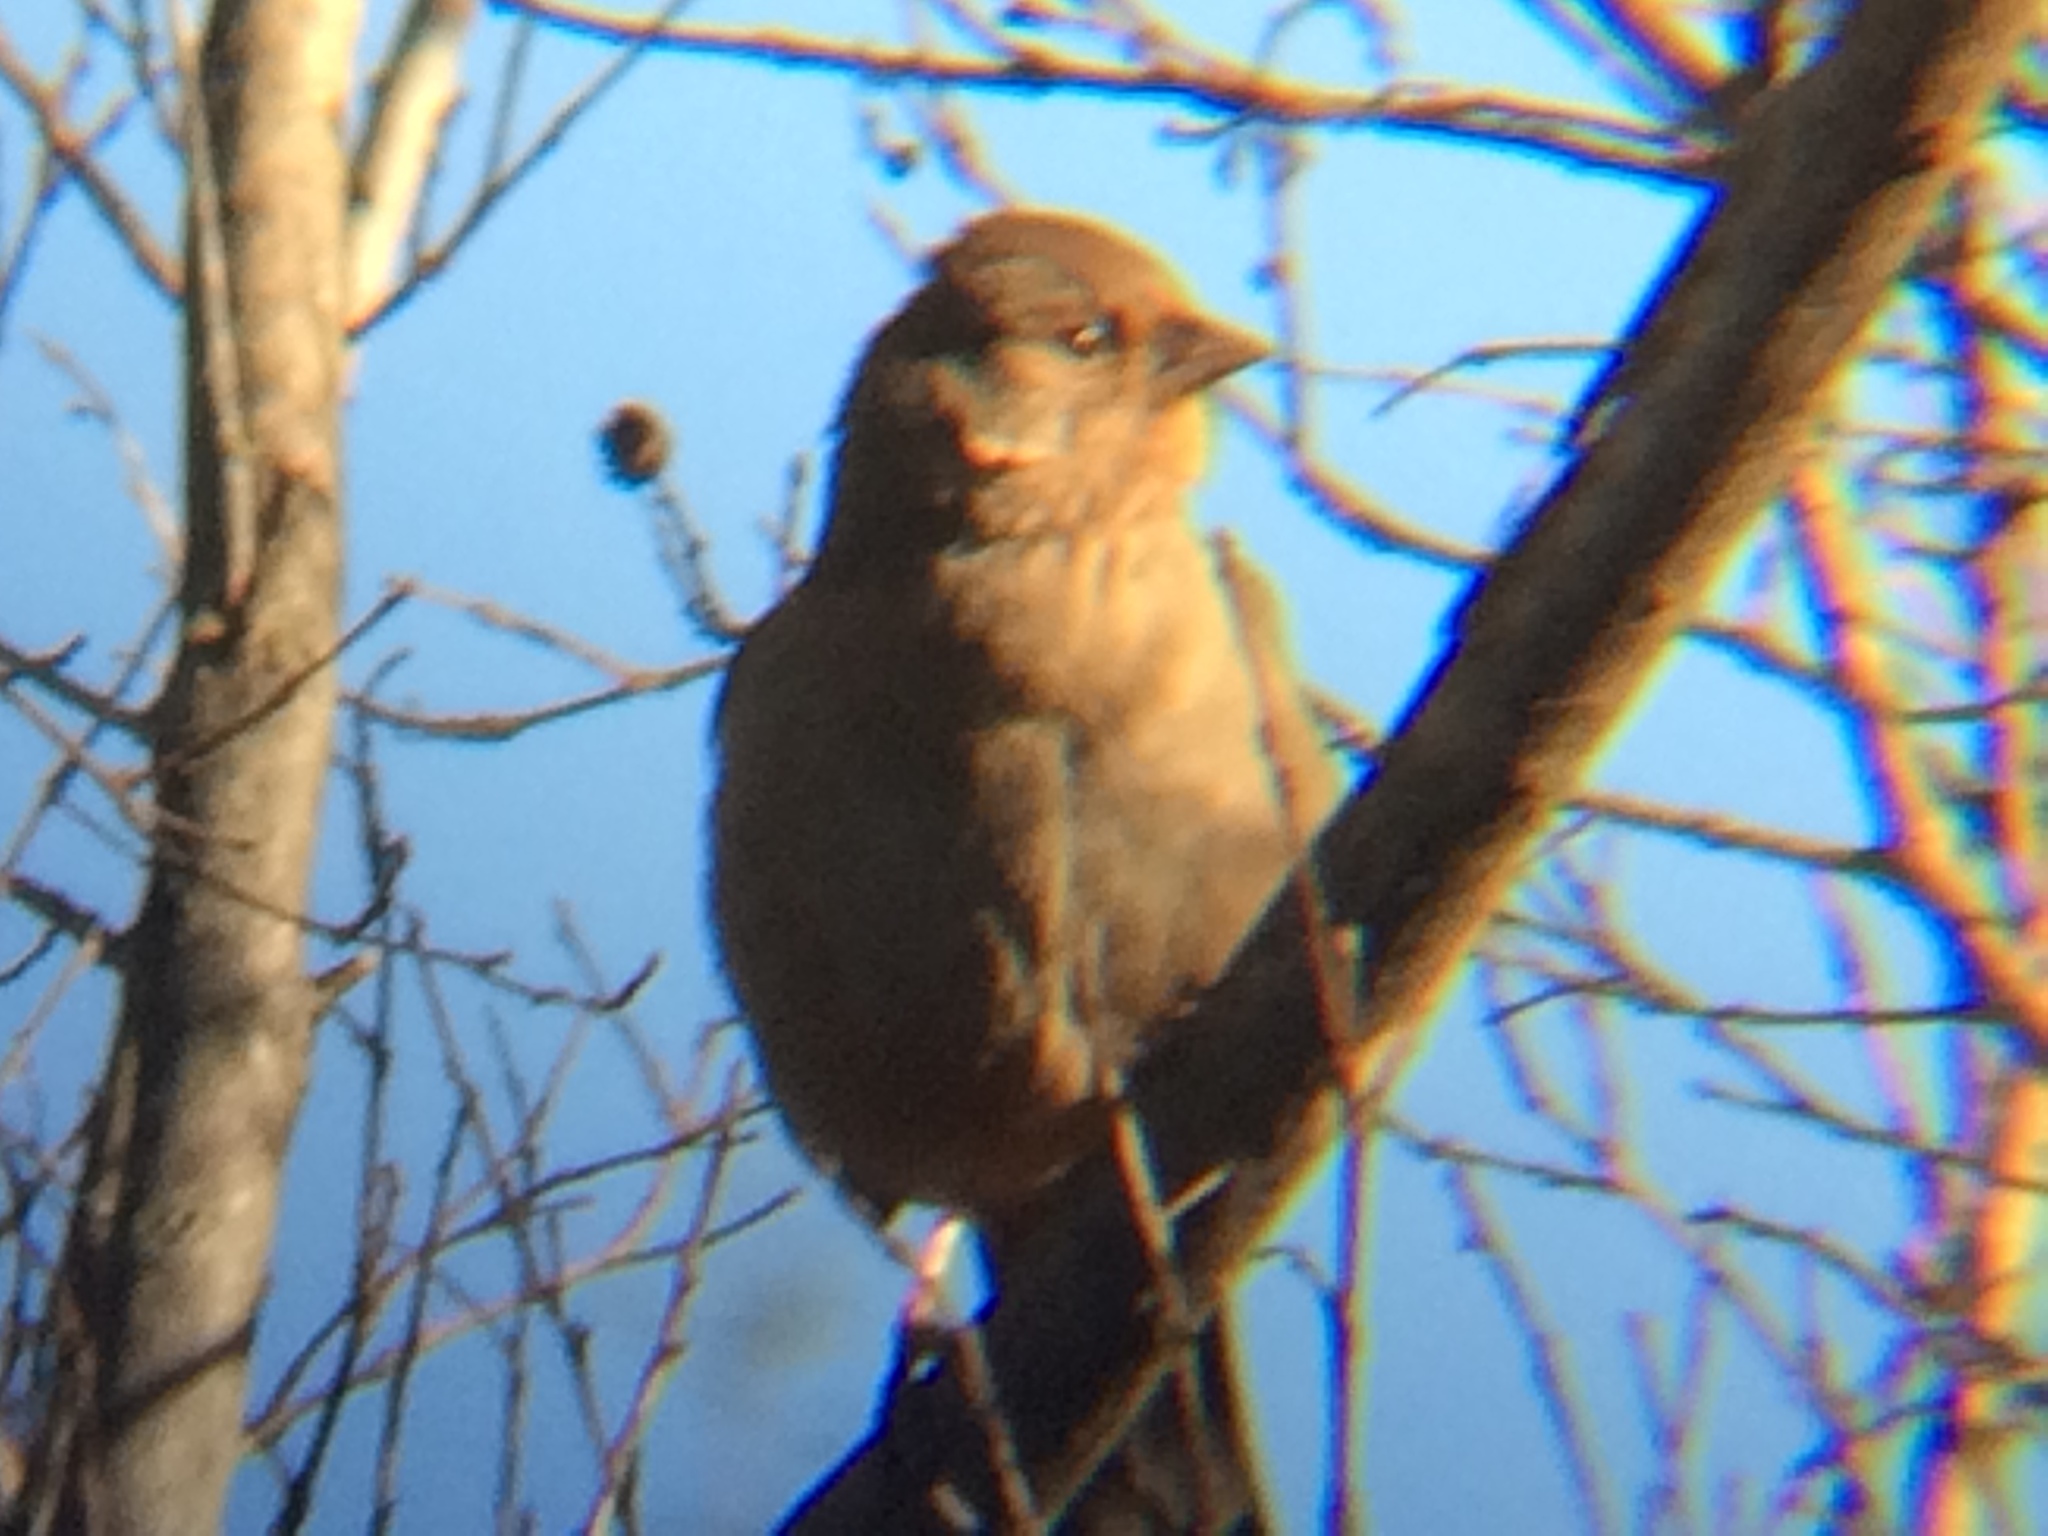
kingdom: Animalia
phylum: Chordata
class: Aves
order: Passeriformes
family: Passerellidae
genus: Melozone
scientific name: Melozone crissalis
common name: California towhee
